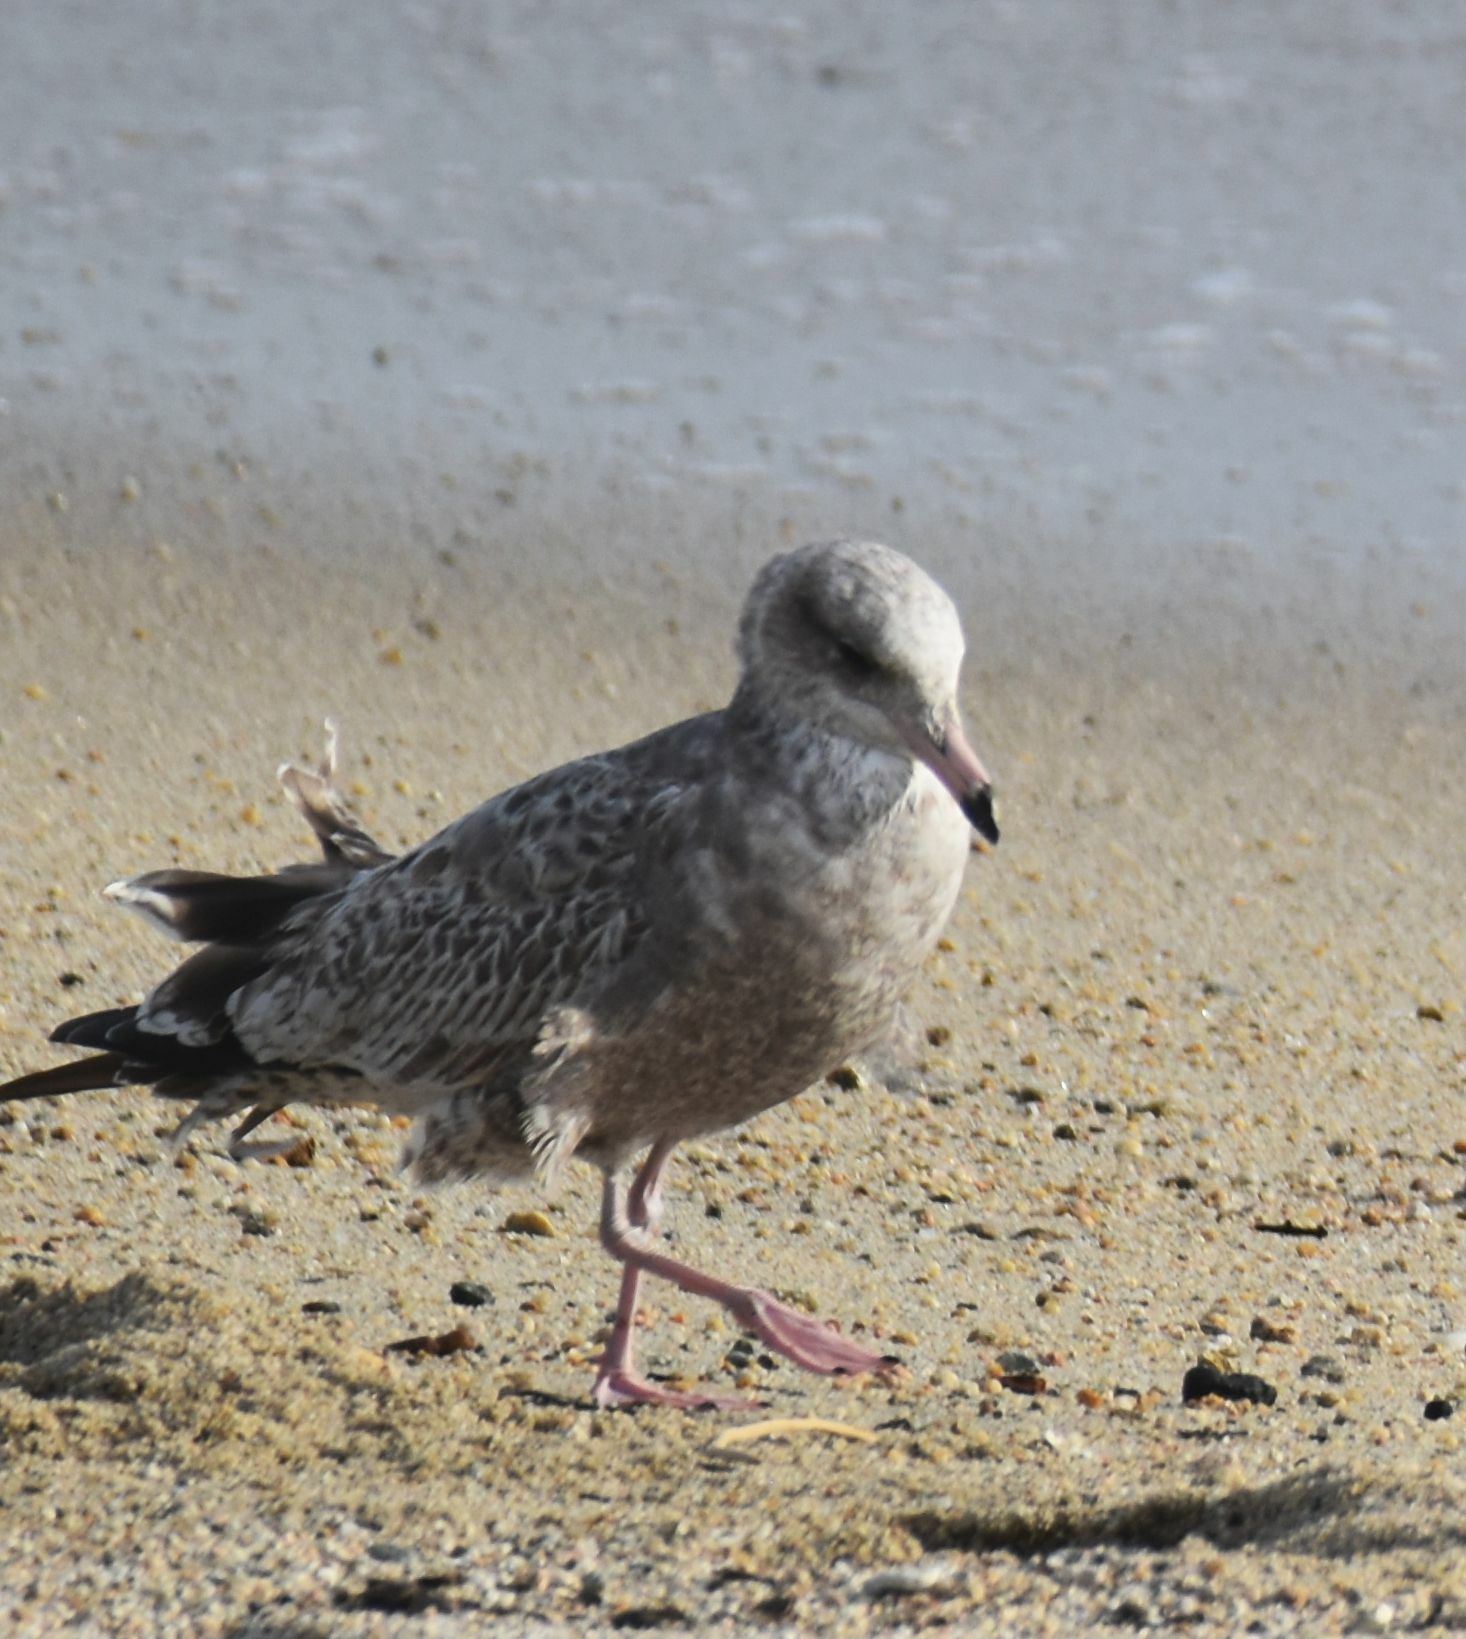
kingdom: Animalia
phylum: Chordata
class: Aves
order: Charadriiformes
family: Laridae
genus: Larus
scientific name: Larus occidentalis
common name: Western gull
